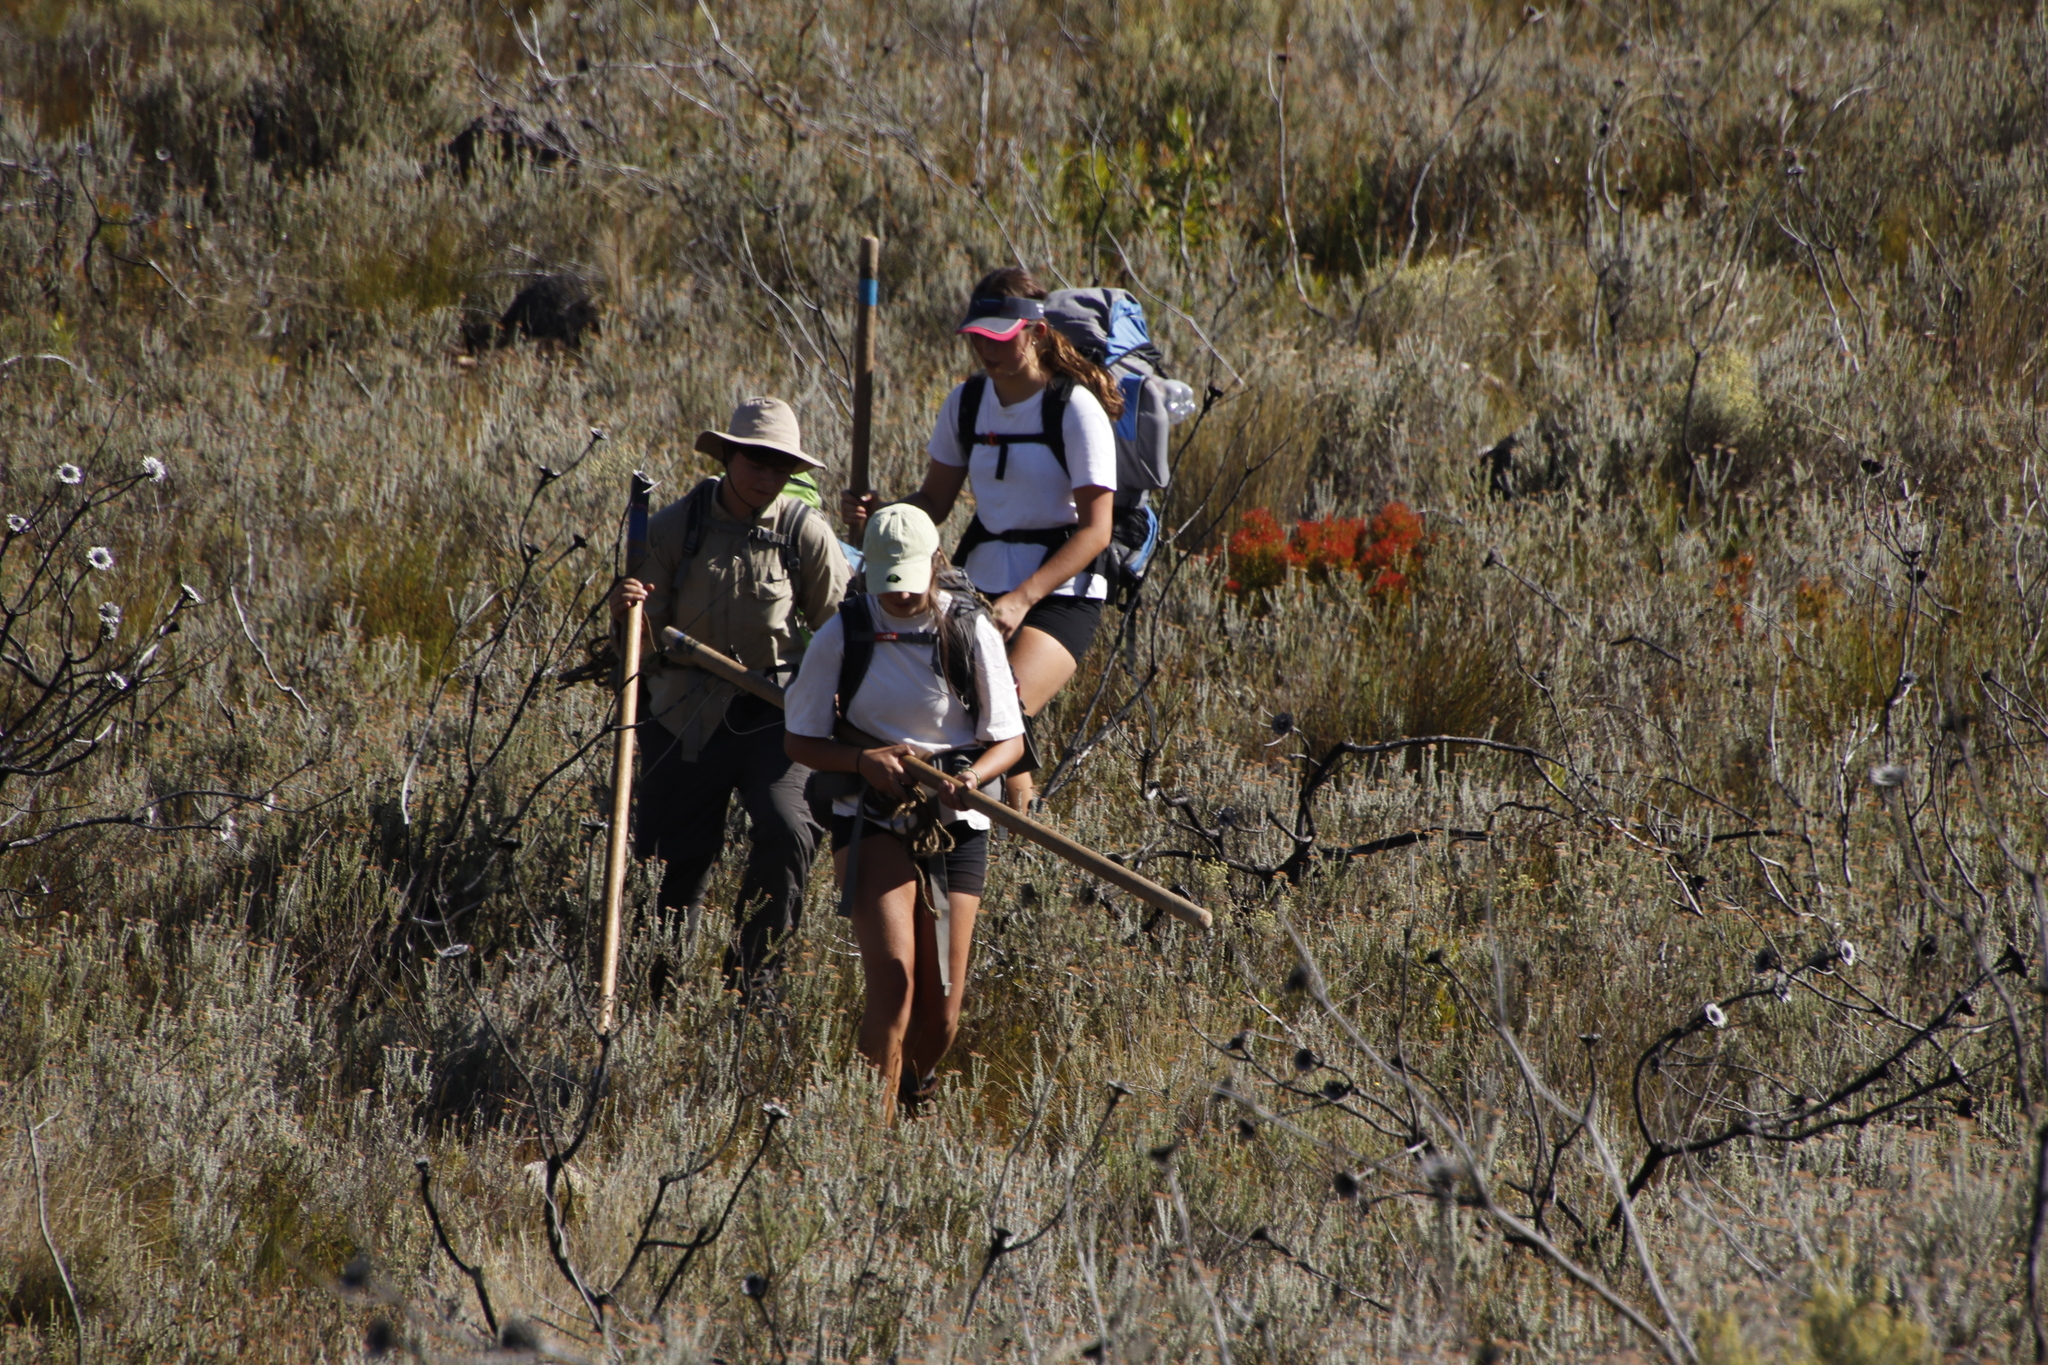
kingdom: Plantae
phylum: Tracheophyta
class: Magnoliopsida
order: Proteales
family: Proteaceae
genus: Protea
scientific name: Protea repens
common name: Sugarbush
